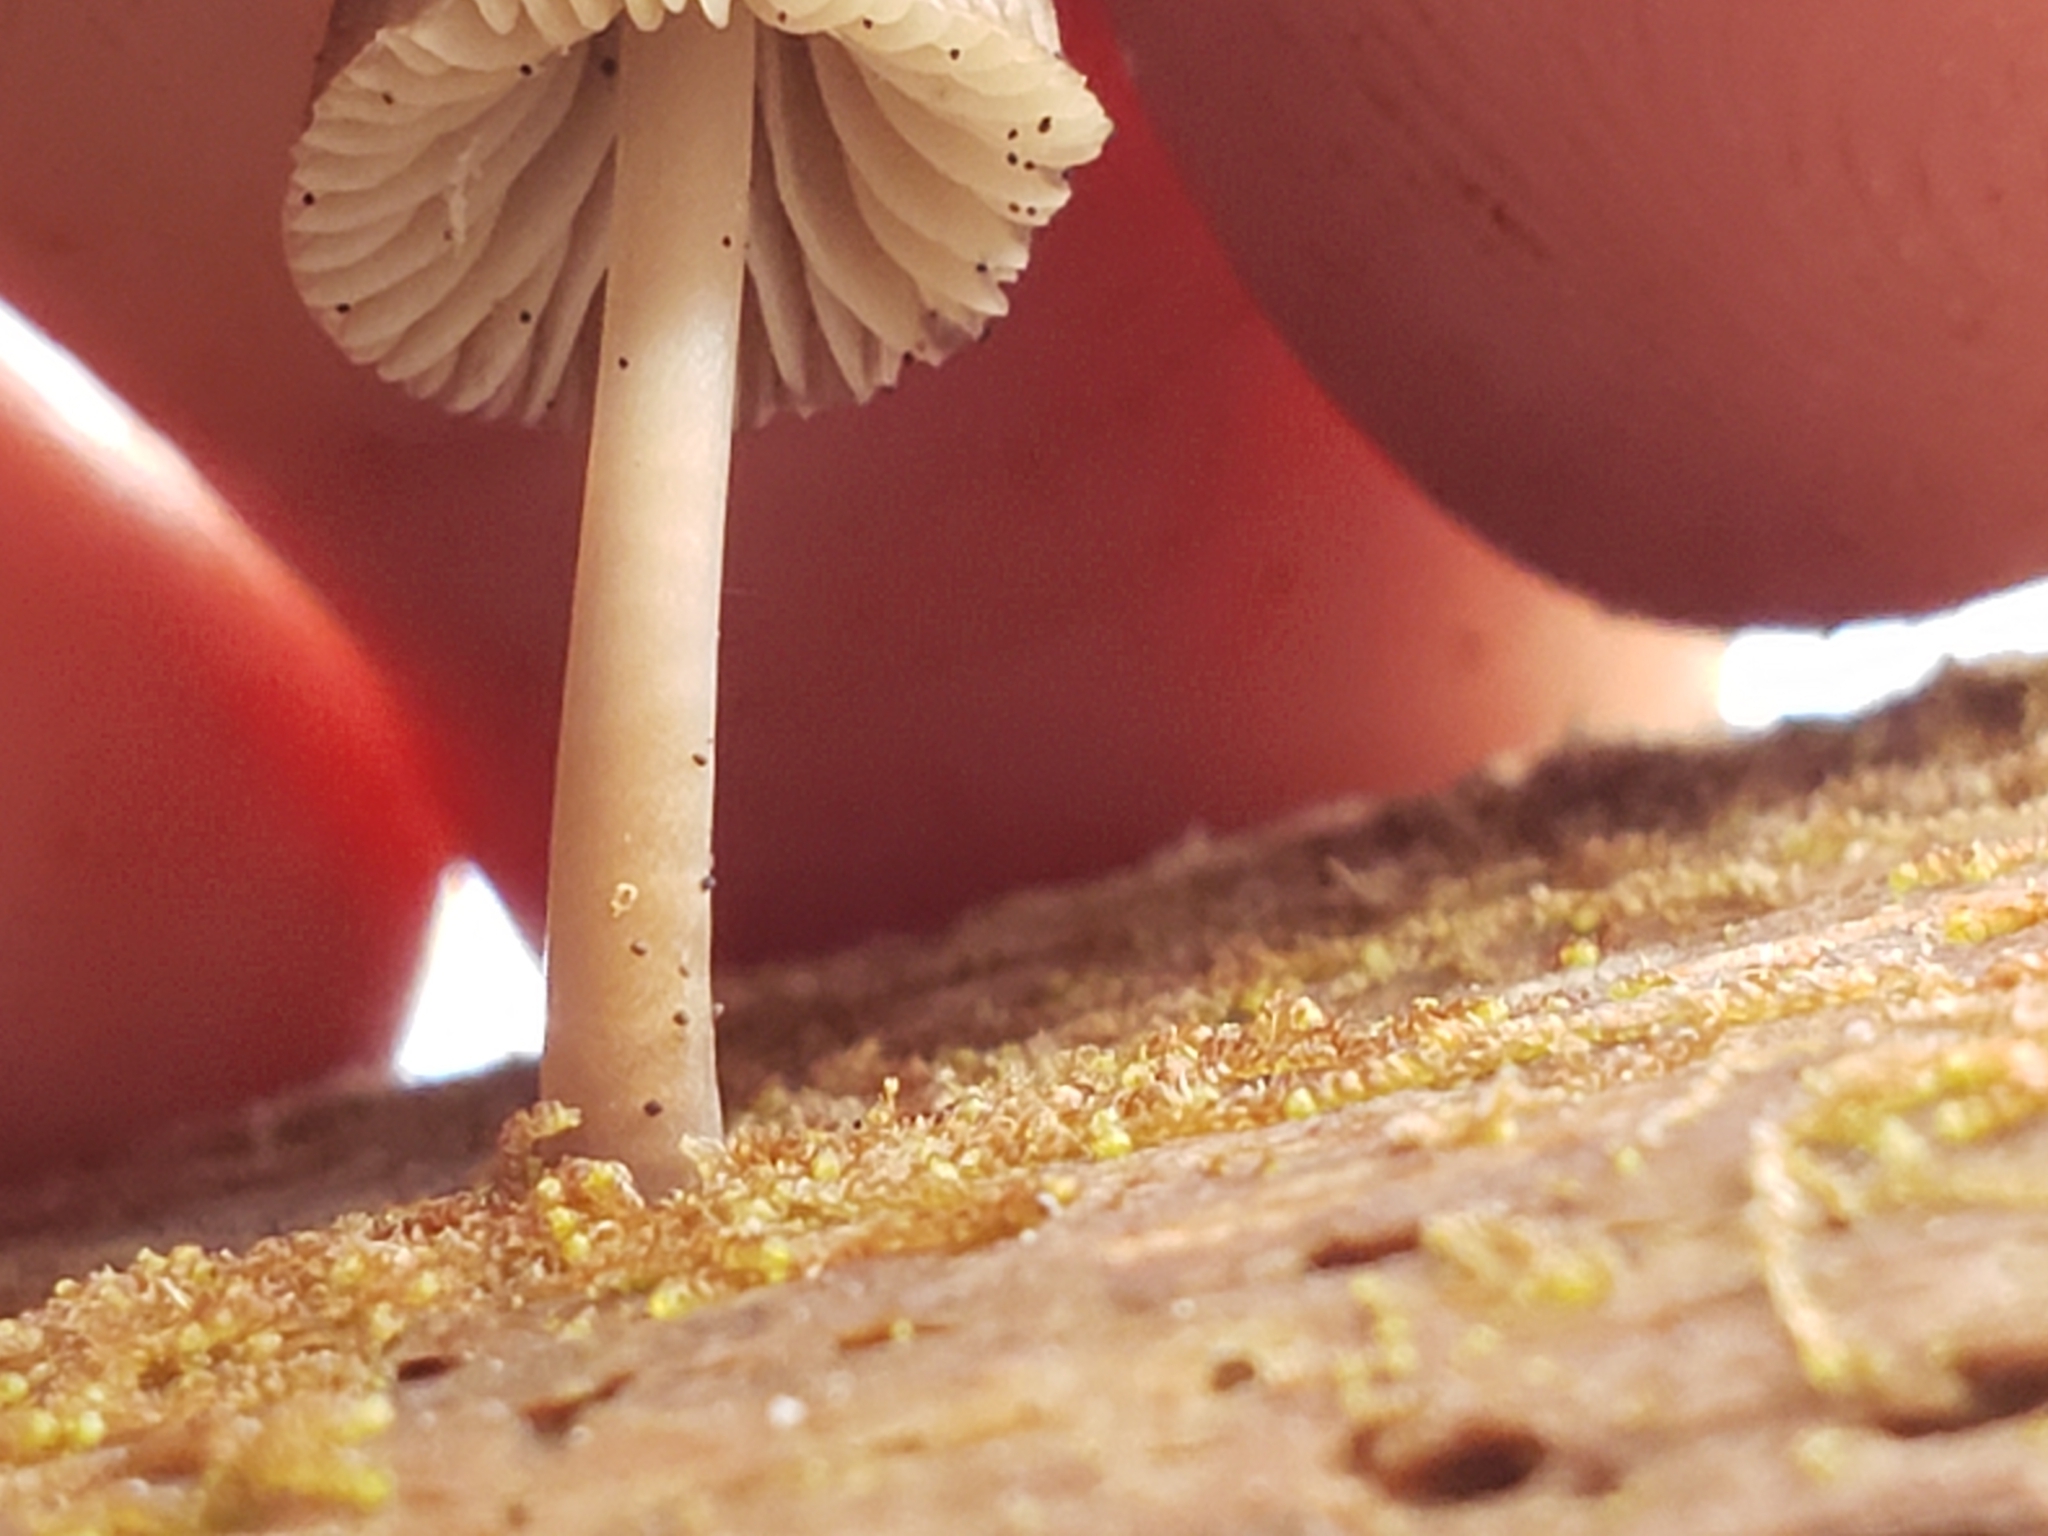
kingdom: Fungi
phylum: Basidiomycota
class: Agaricomycetes
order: Agaricales
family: Mycenaceae
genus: Mycena
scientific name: Mycena leptocephala
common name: Nitrous bonnet
